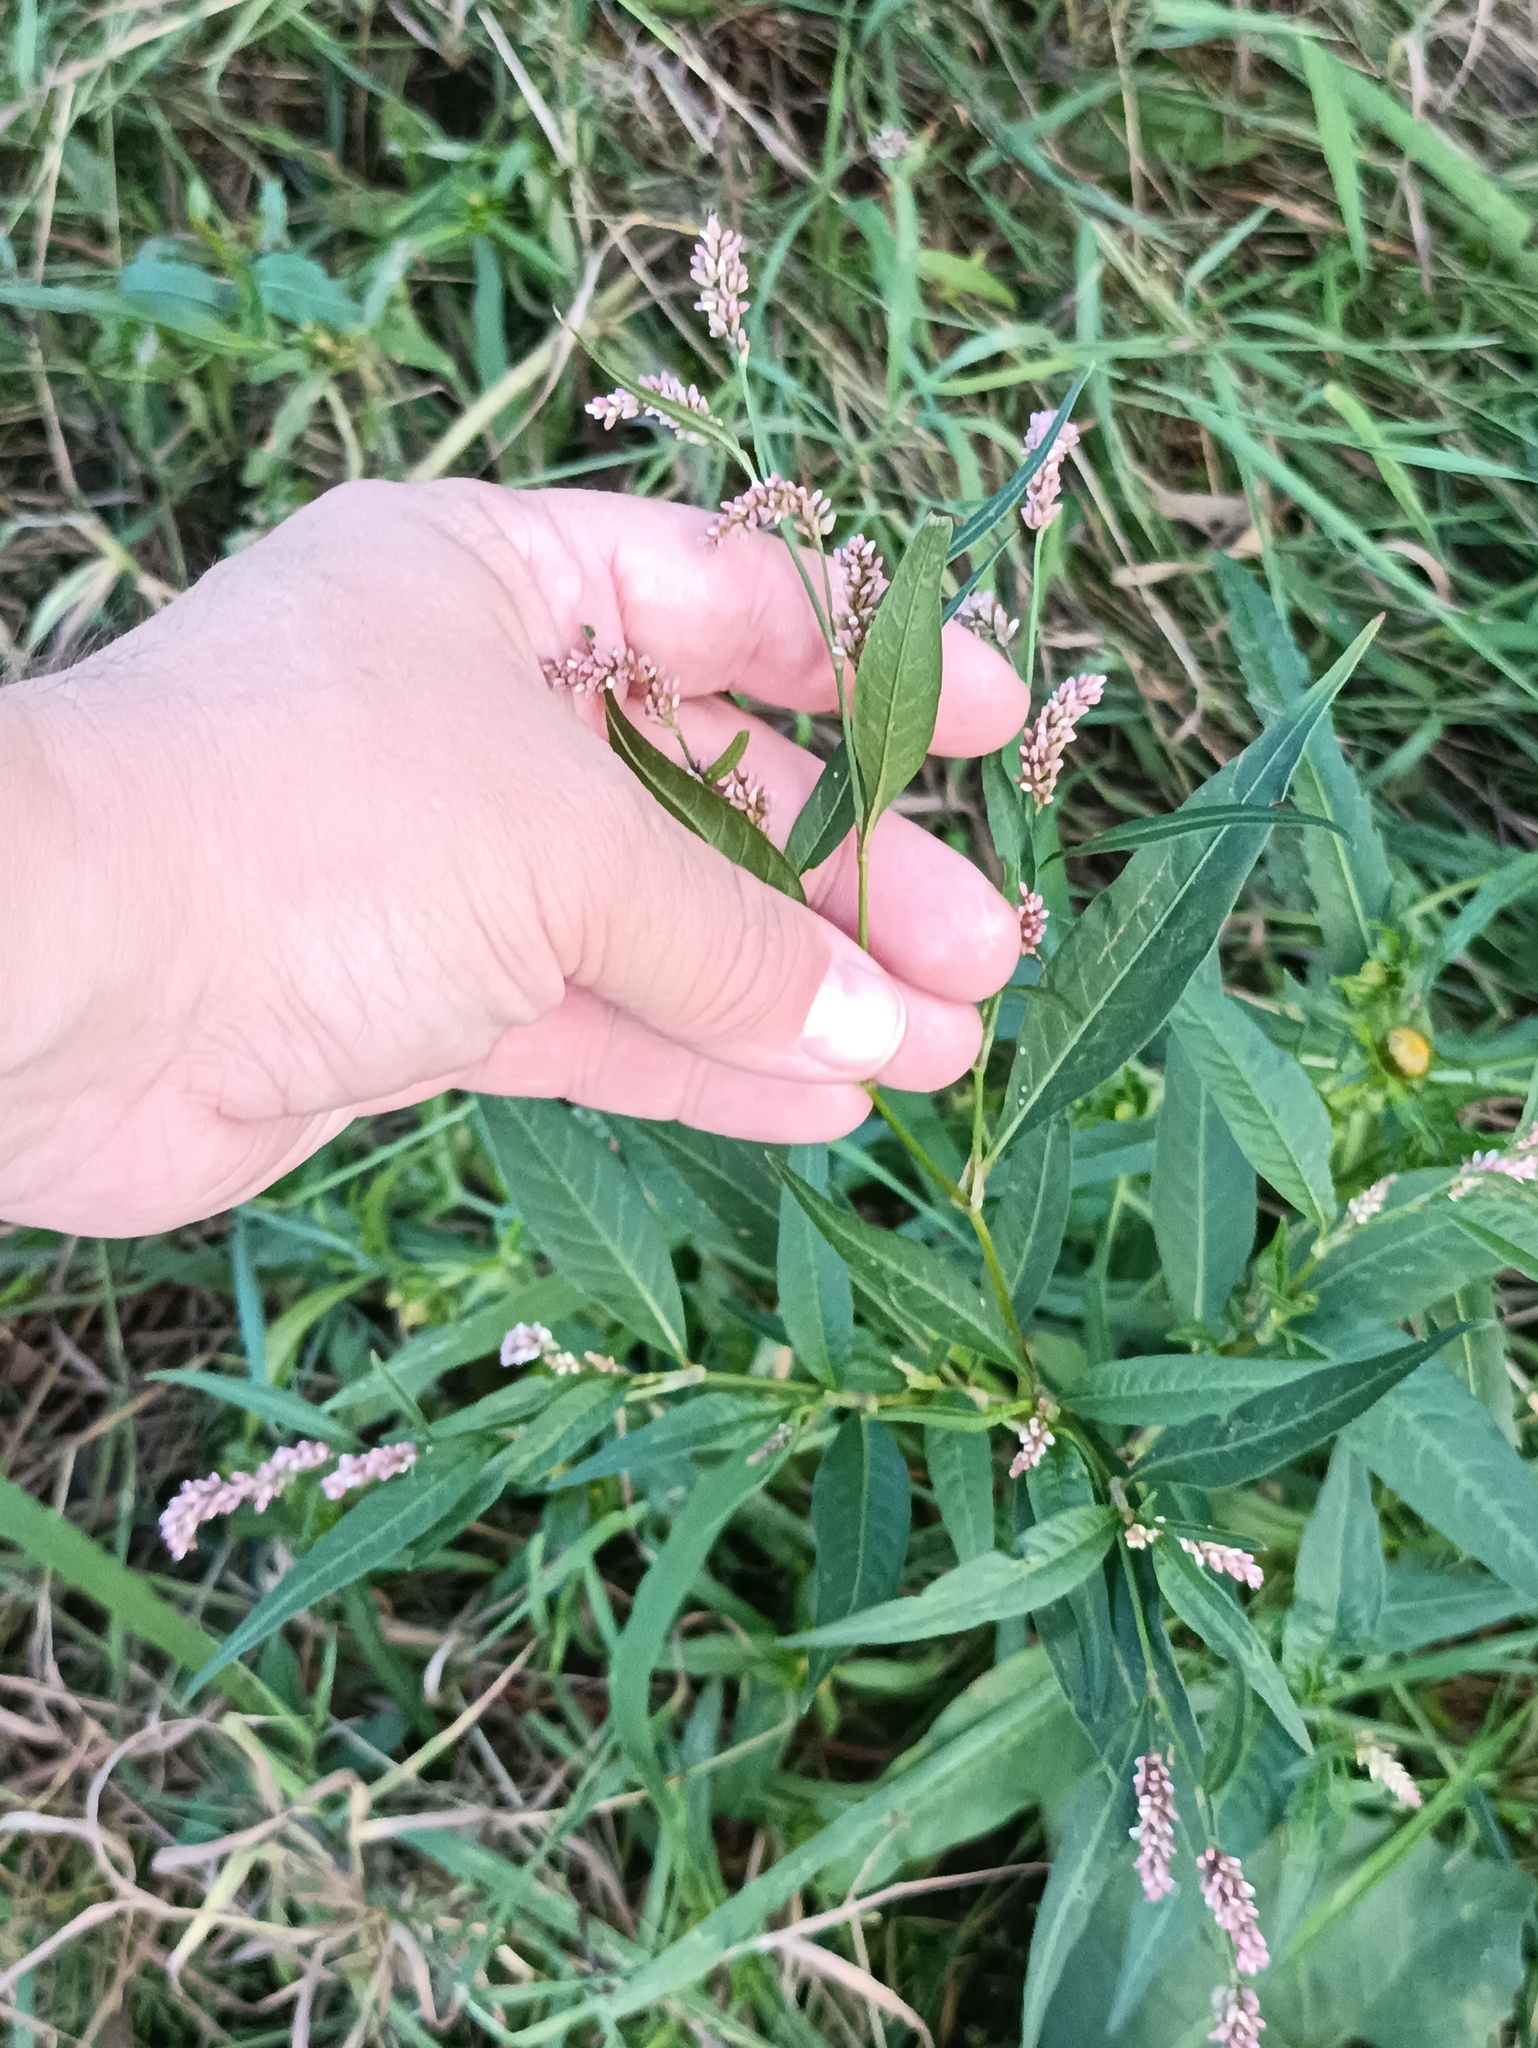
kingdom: Plantae
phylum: Tracheophyta
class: Magnoliopsida
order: Caryophyllales
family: Polygonaceae
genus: Persicaria
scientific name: Persicaria lapathifolia
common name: Curlytop knotweed
